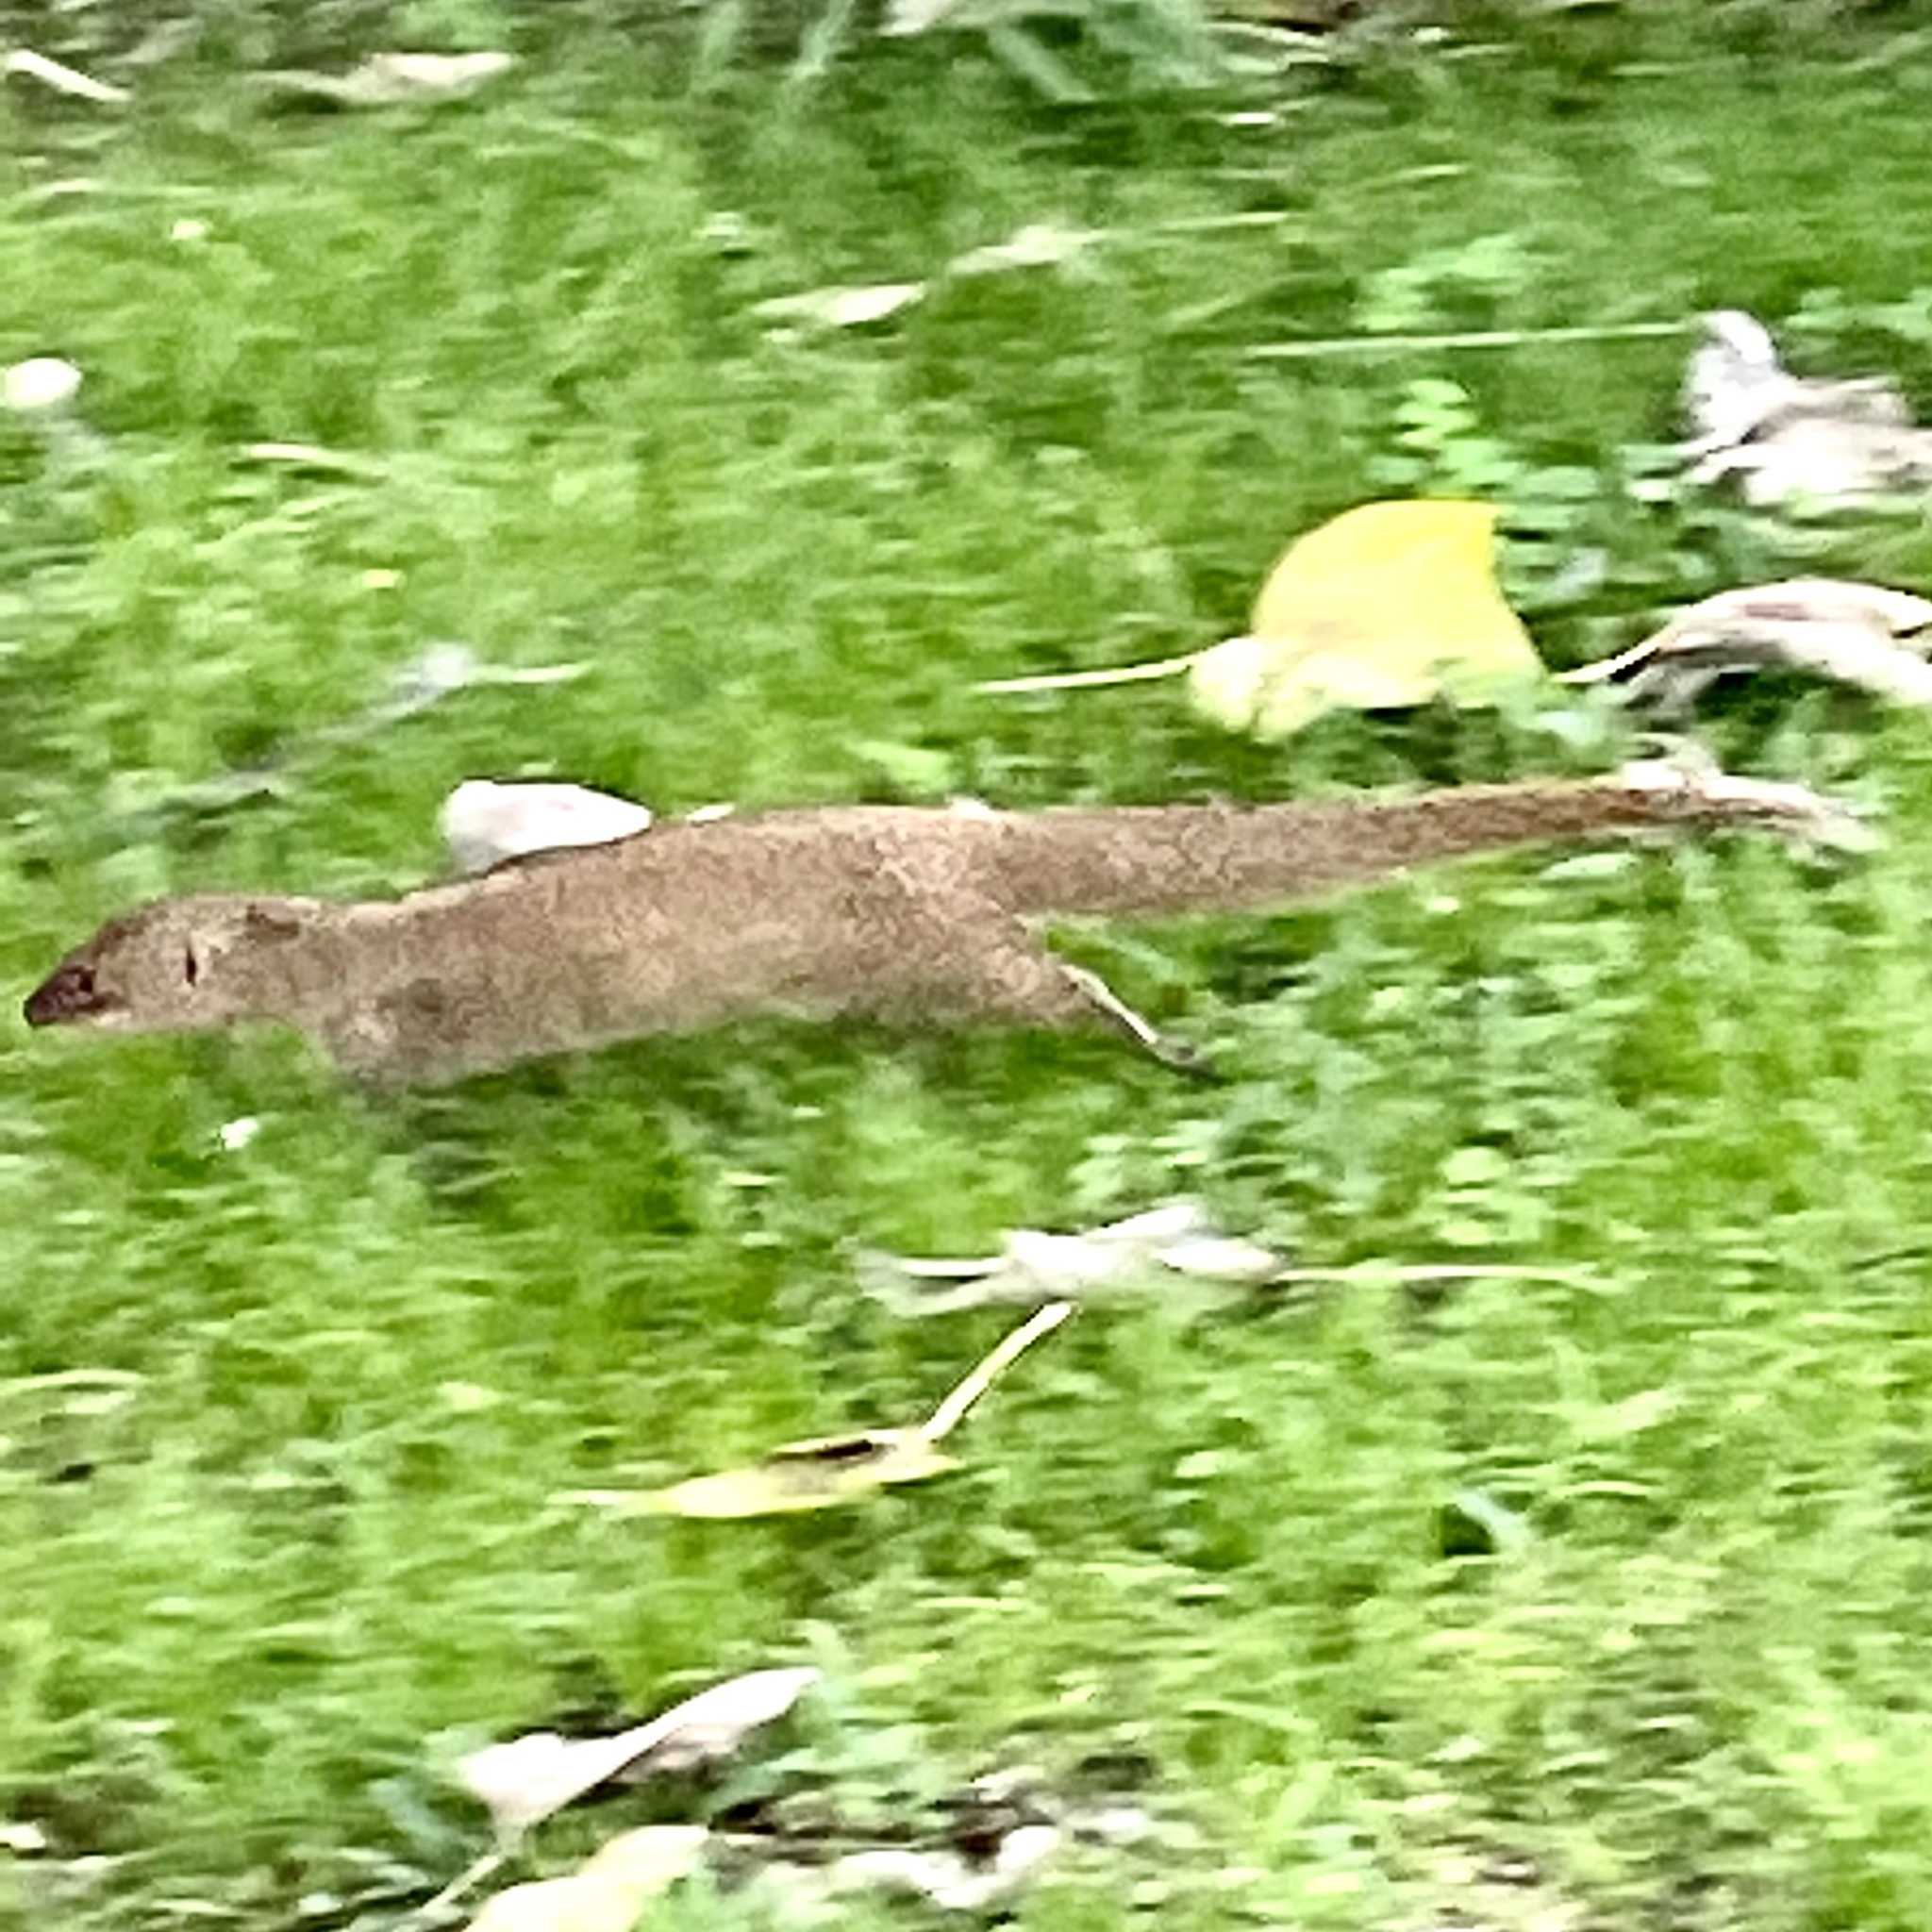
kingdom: Animalia
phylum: Chordata
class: Mammalia
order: Carnivora
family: Herpestidae
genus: Herpestes
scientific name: Herpestes javanicus
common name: Small asian mongoose
